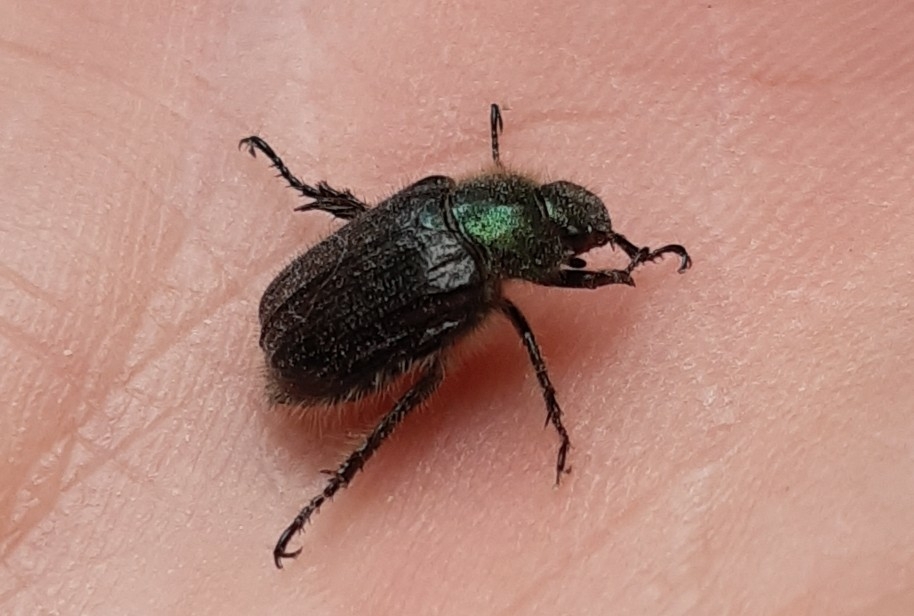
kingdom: Animalia
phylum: Arthropoda
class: Insecta
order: Coleoptera
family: Scarabaeidae
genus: Phyllopertha
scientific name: Phyllopertha horticola
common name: Garden chafer
